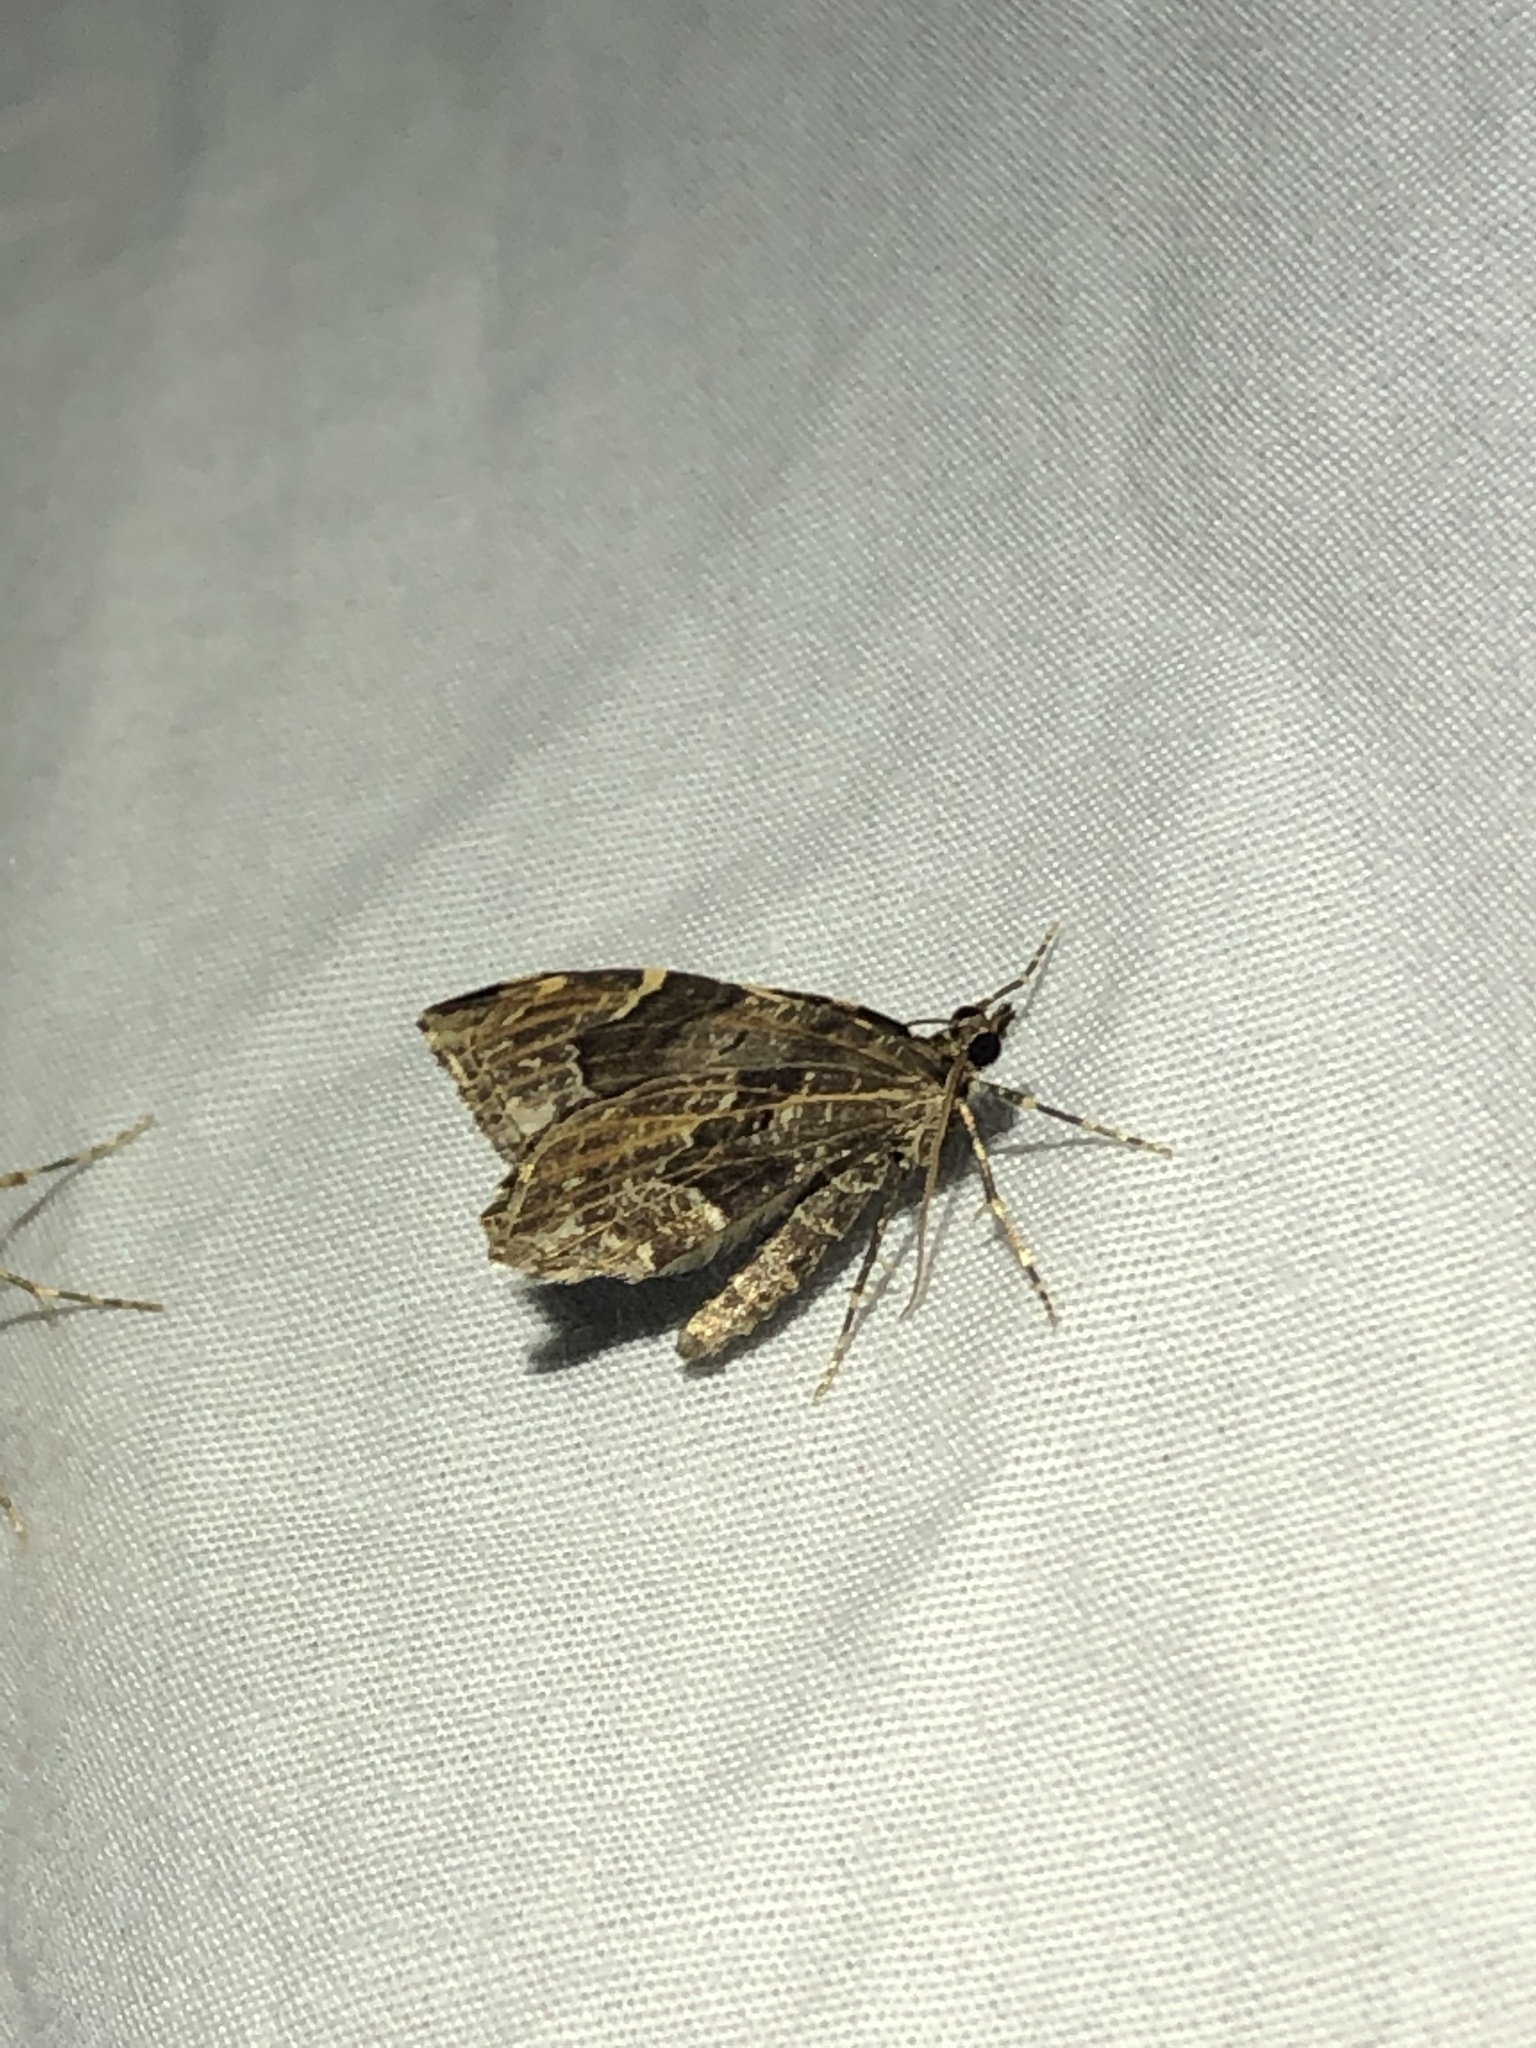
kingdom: Animalia
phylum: Arthropoda
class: Insecta
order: Lepidoptera
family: Geometridae
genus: Ceratodalia
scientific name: Ceratodalia gueneata
